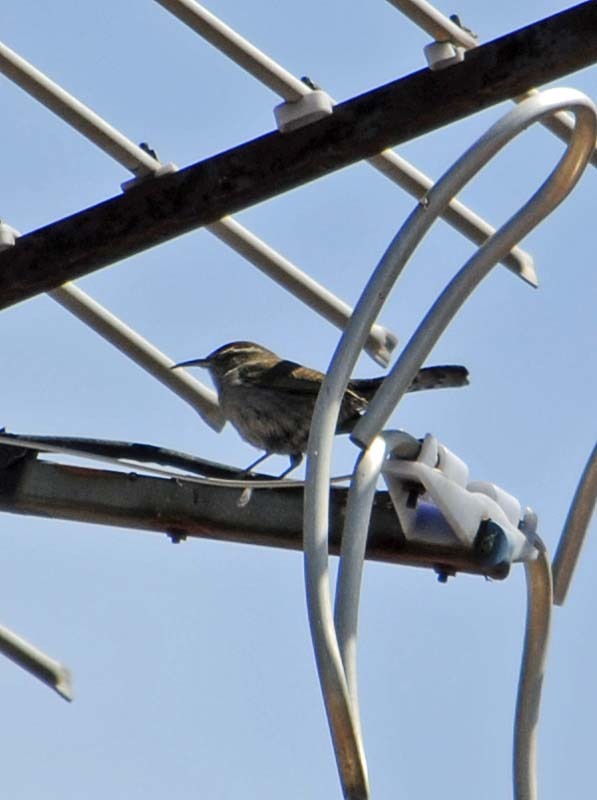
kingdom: Animalia
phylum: Chordata
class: Aves
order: Passeriformes
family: Troglodytidae
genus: Thryomanes
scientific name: Thryomanes bewickii
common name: Bewick's wren
